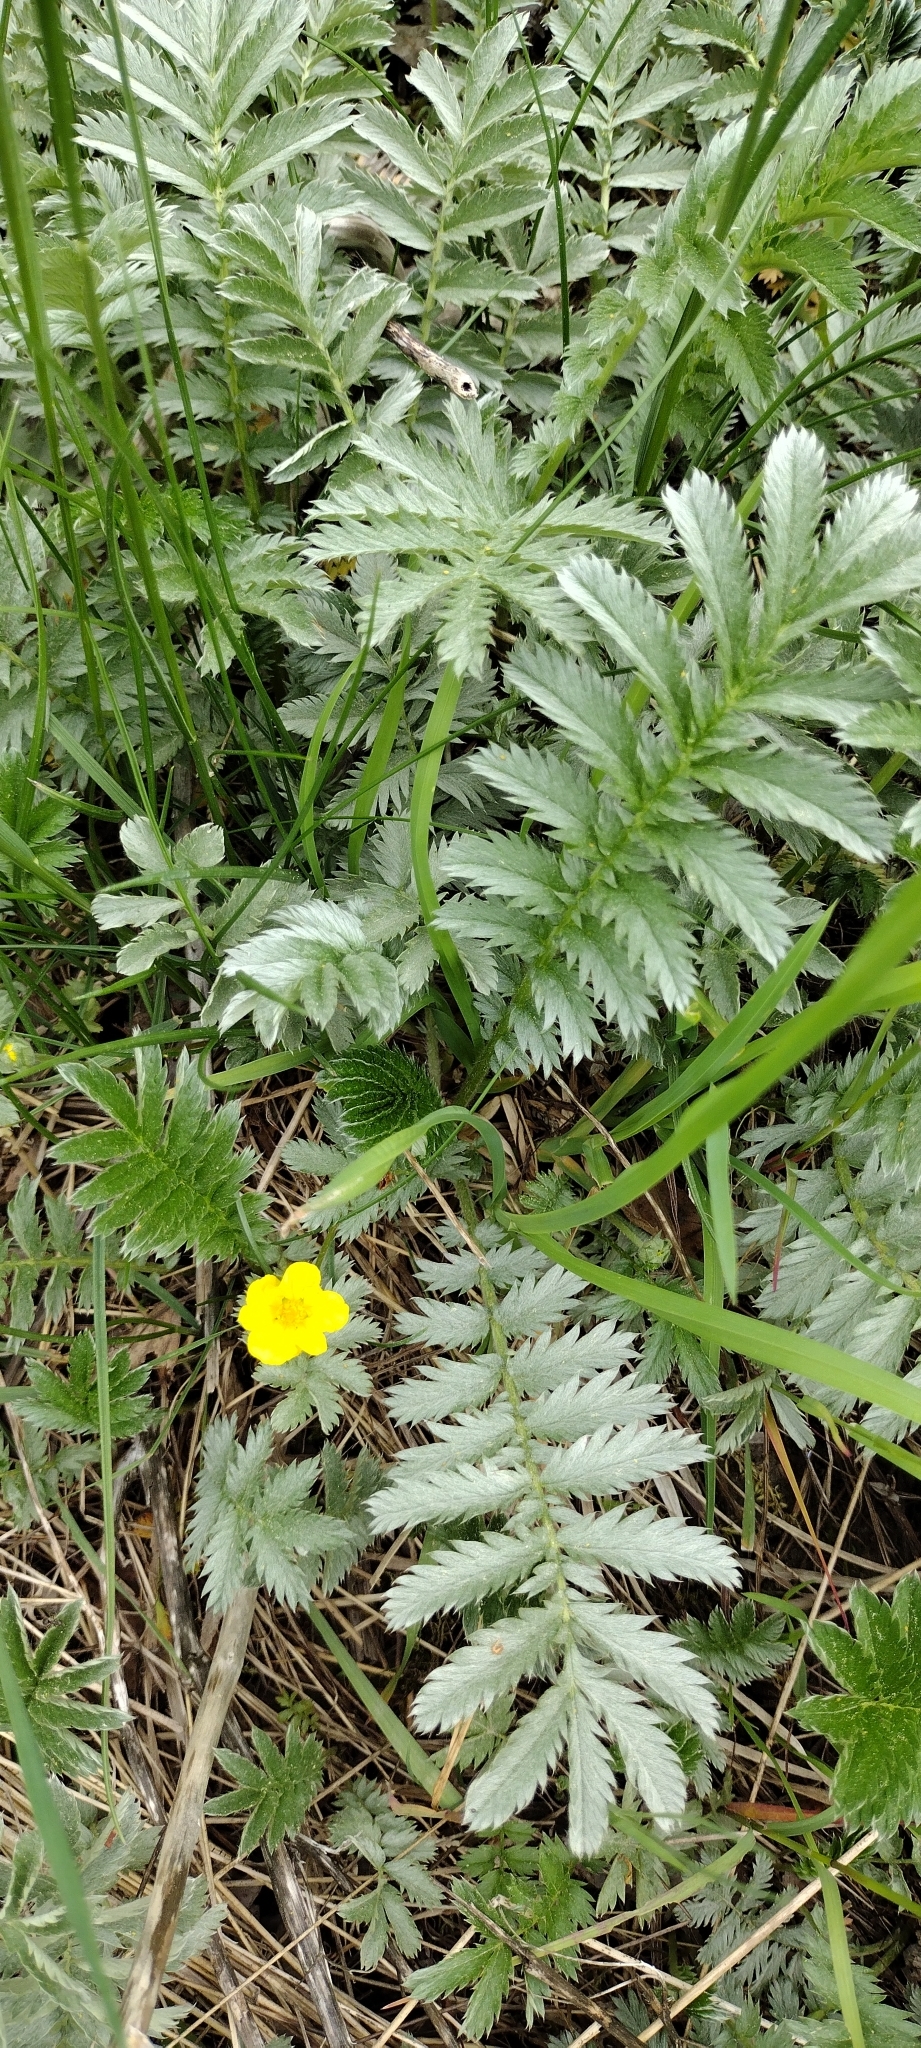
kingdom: Plantae
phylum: Tracheophyta
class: Magnoliopsida
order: Rosales
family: Rosaceae
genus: Argentina
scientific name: Argentina anserina
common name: Common silverweed
